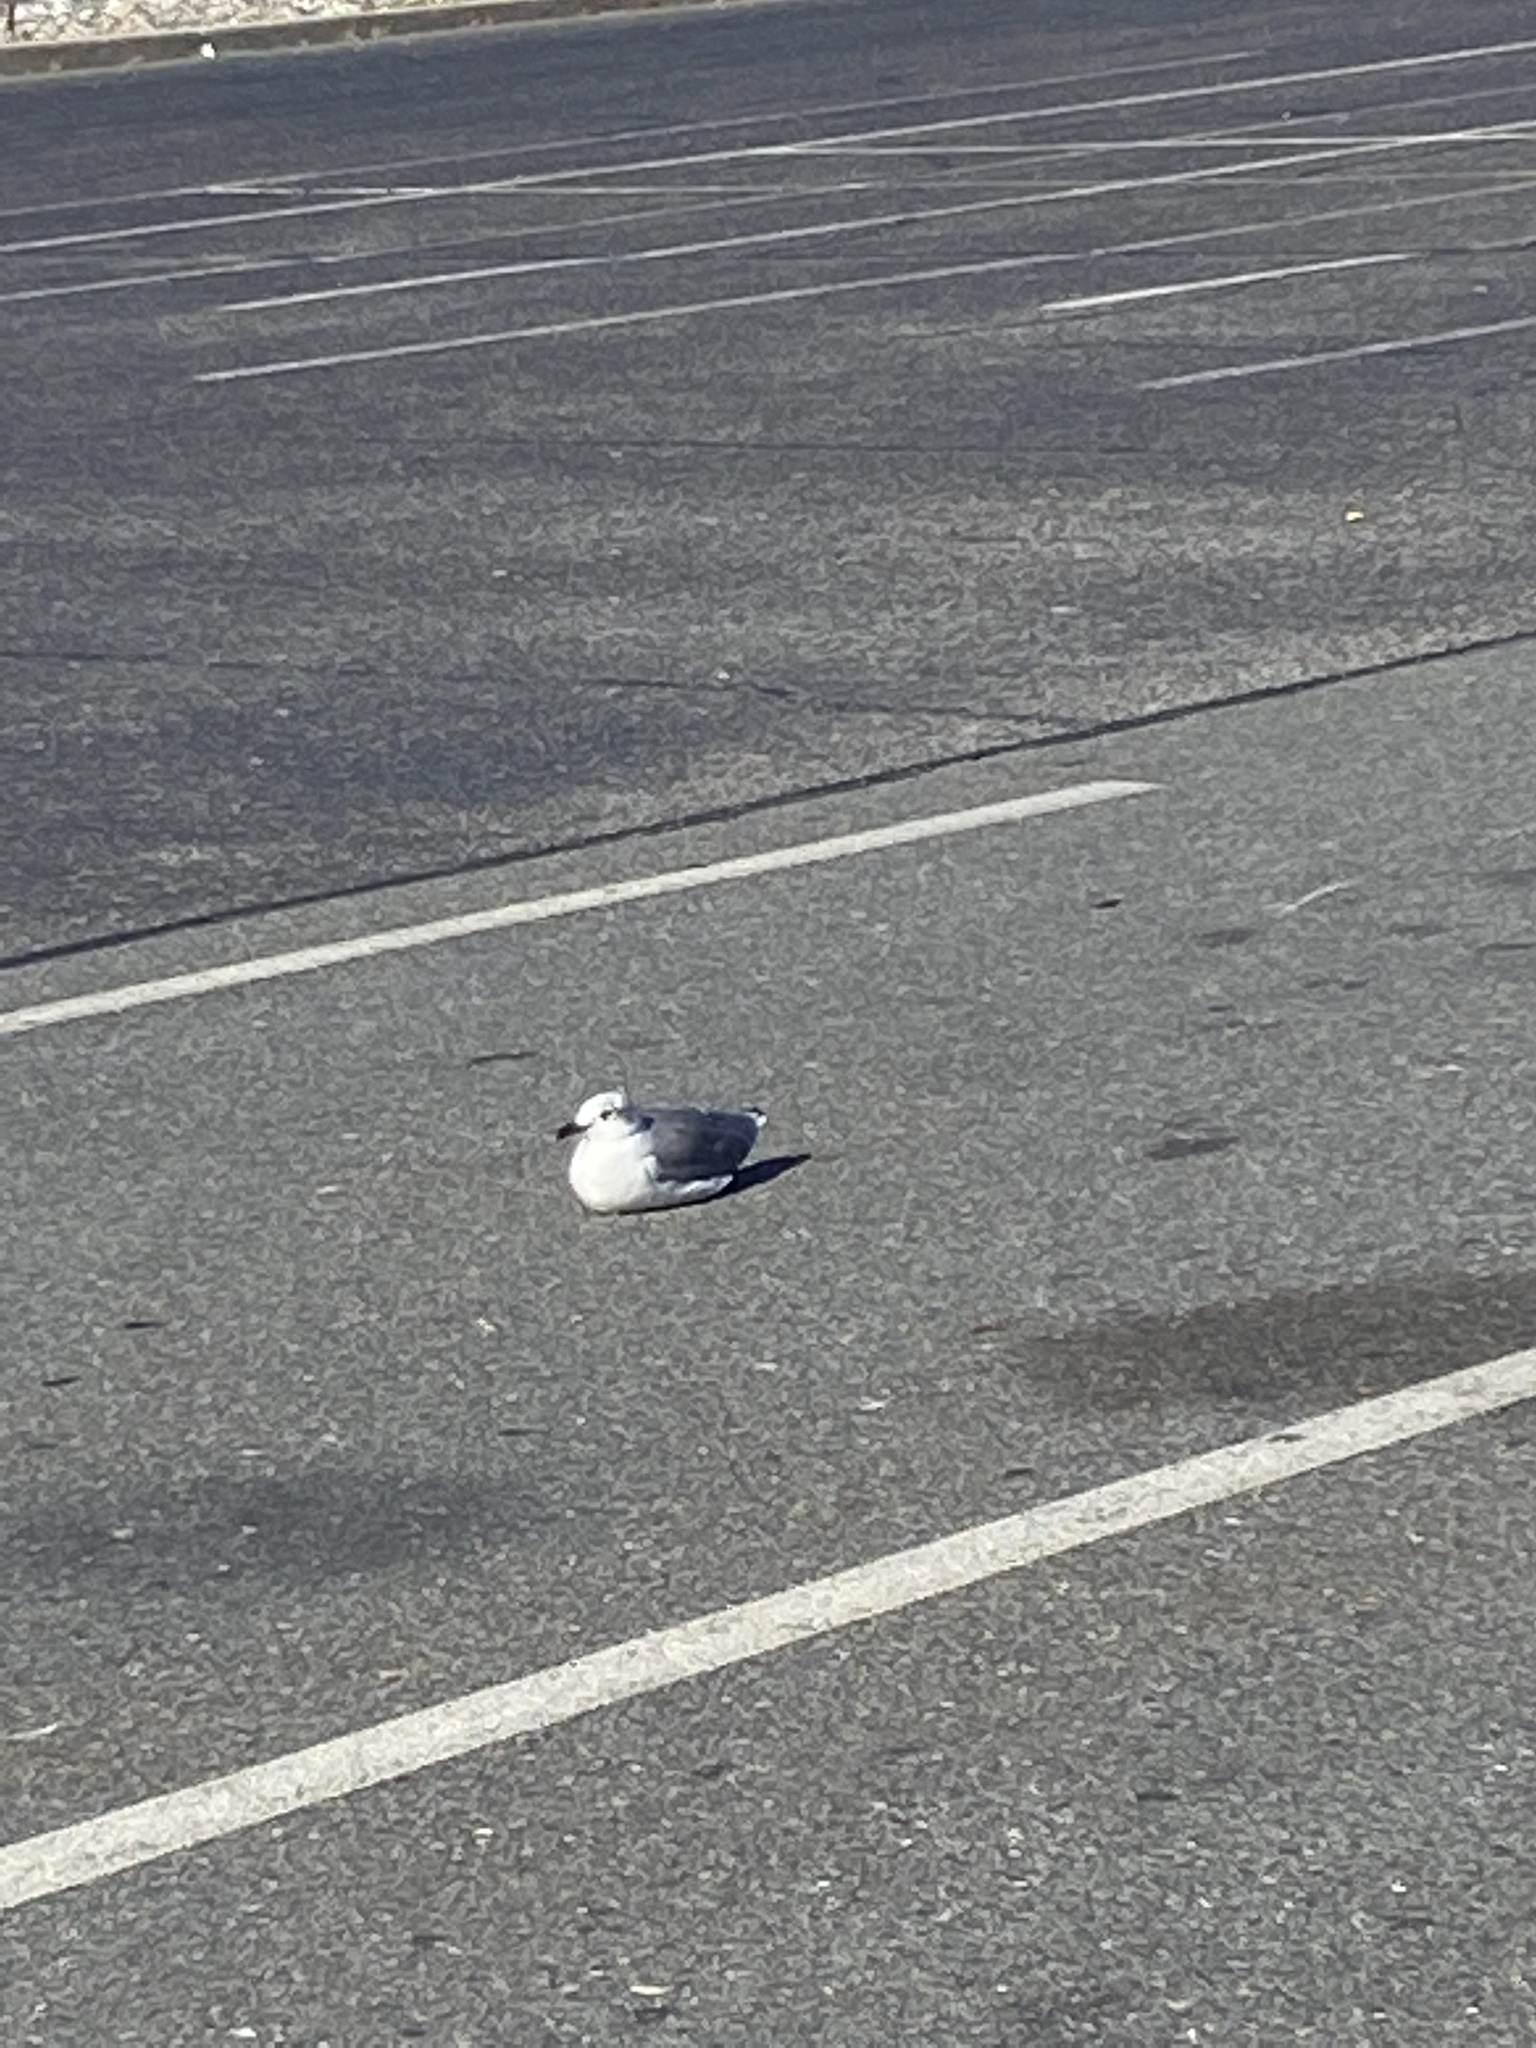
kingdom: Animalia
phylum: Chordata
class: Aves
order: Charadriiformes
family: Laridae
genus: Leucophaeus
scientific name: Leucophaeus atricilla
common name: Laughing gull
